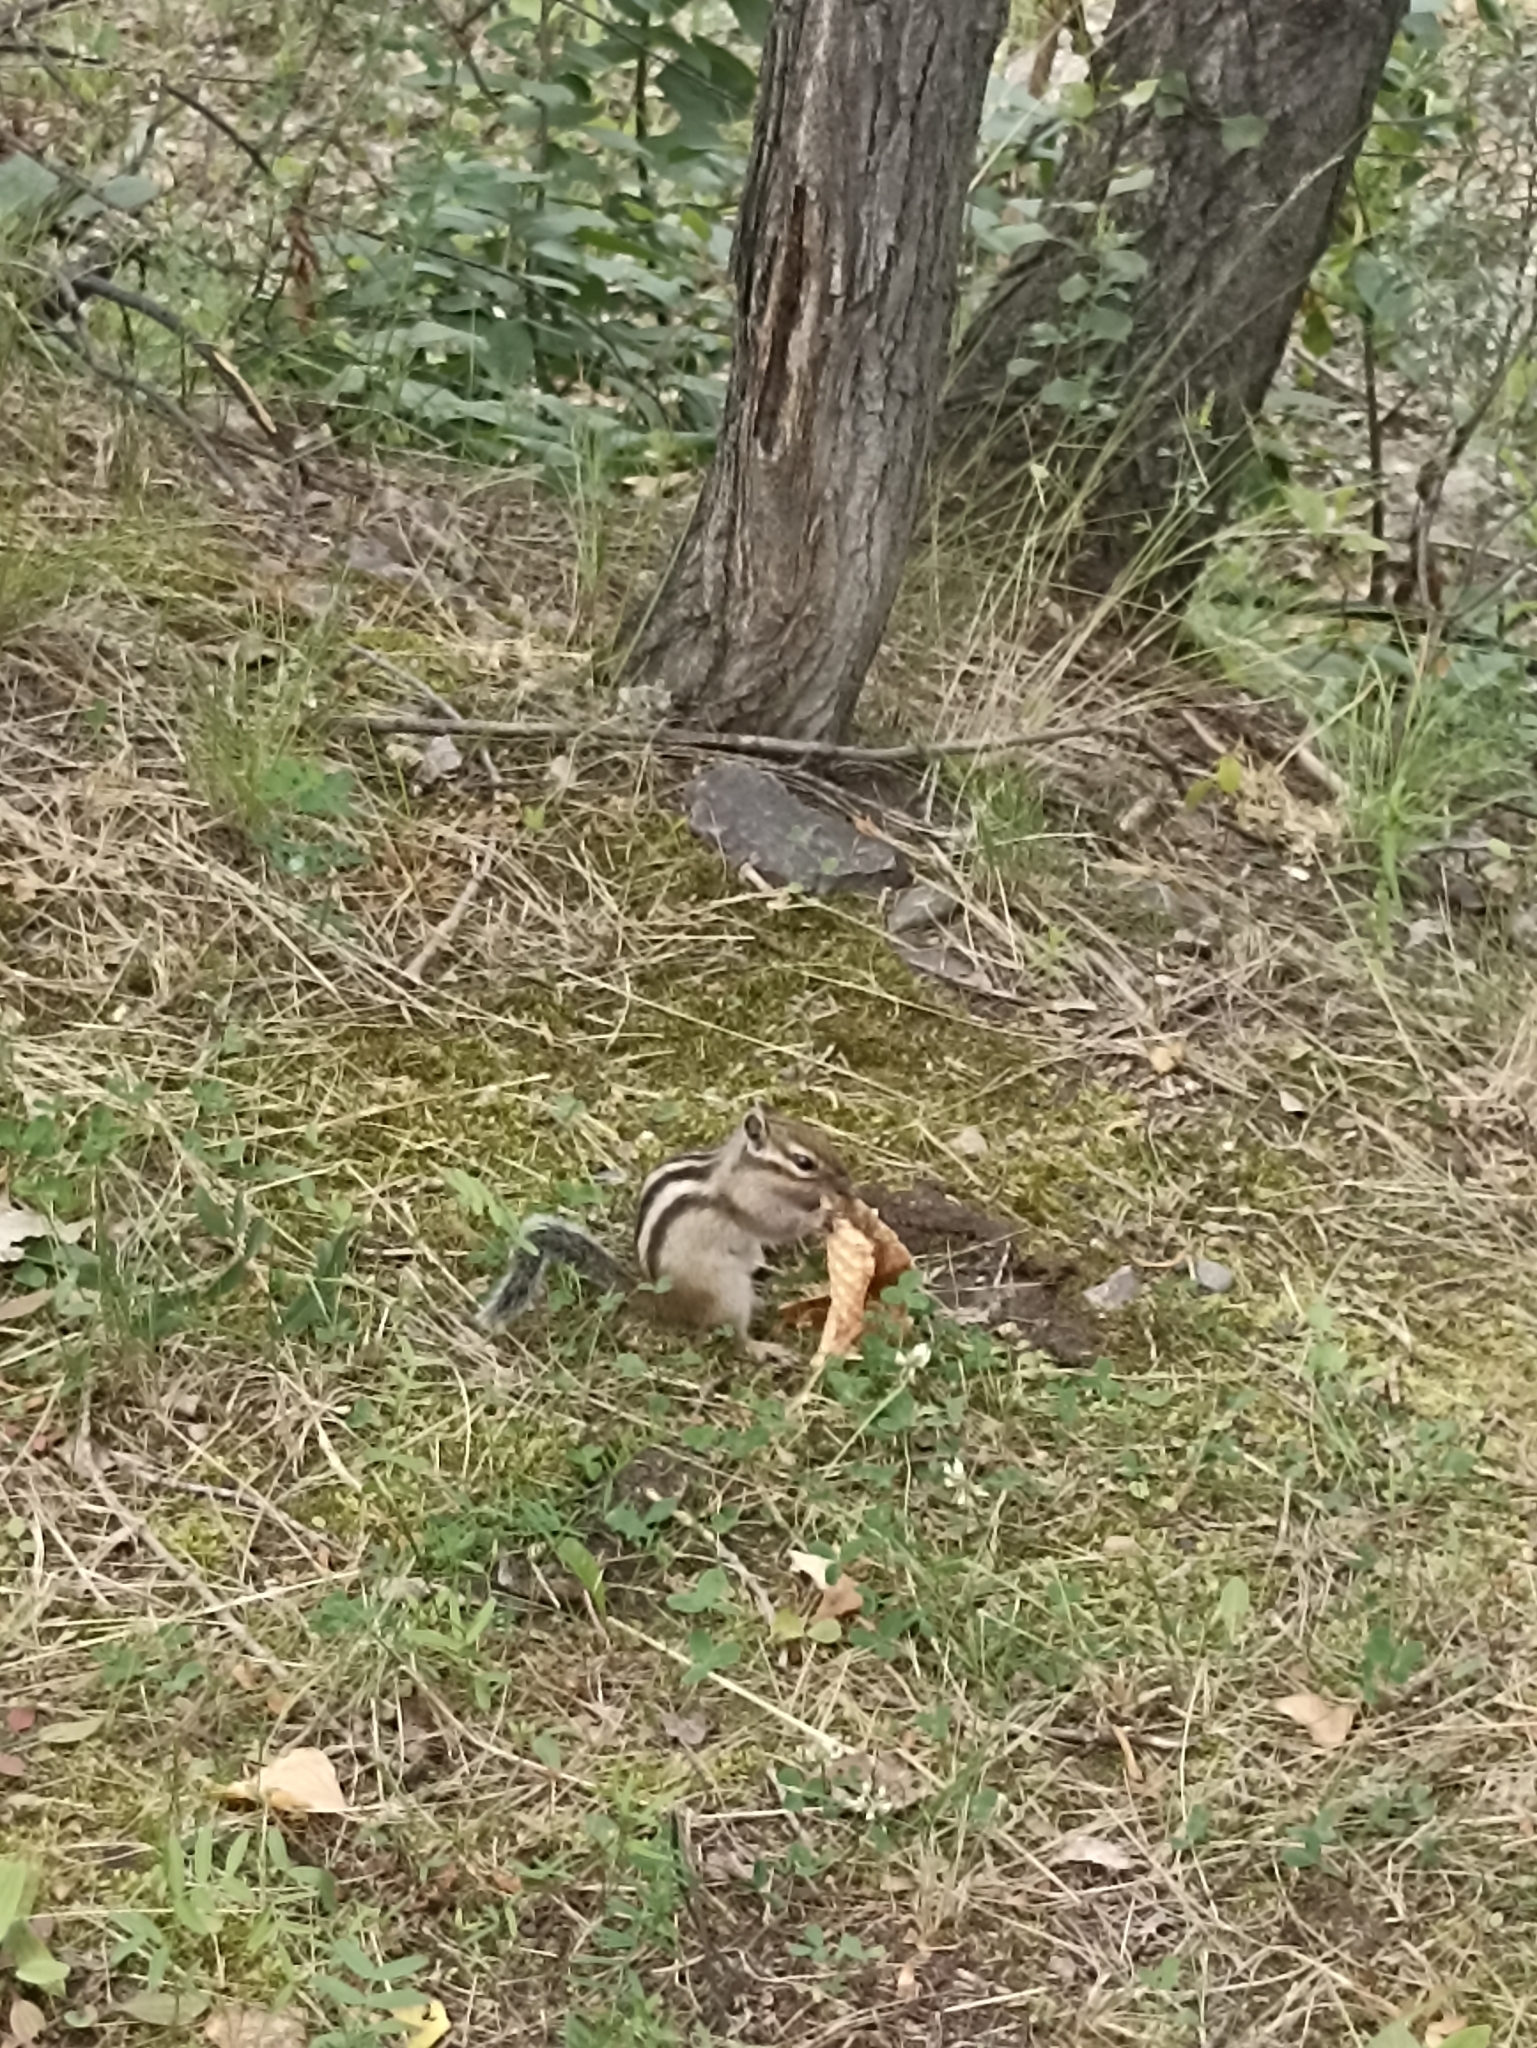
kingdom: Animalia
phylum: Chordata
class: Mammalia
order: Rodentia
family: Sciuridae
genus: Tamias
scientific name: Tamias sibiricus
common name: Siberian chipmunk
